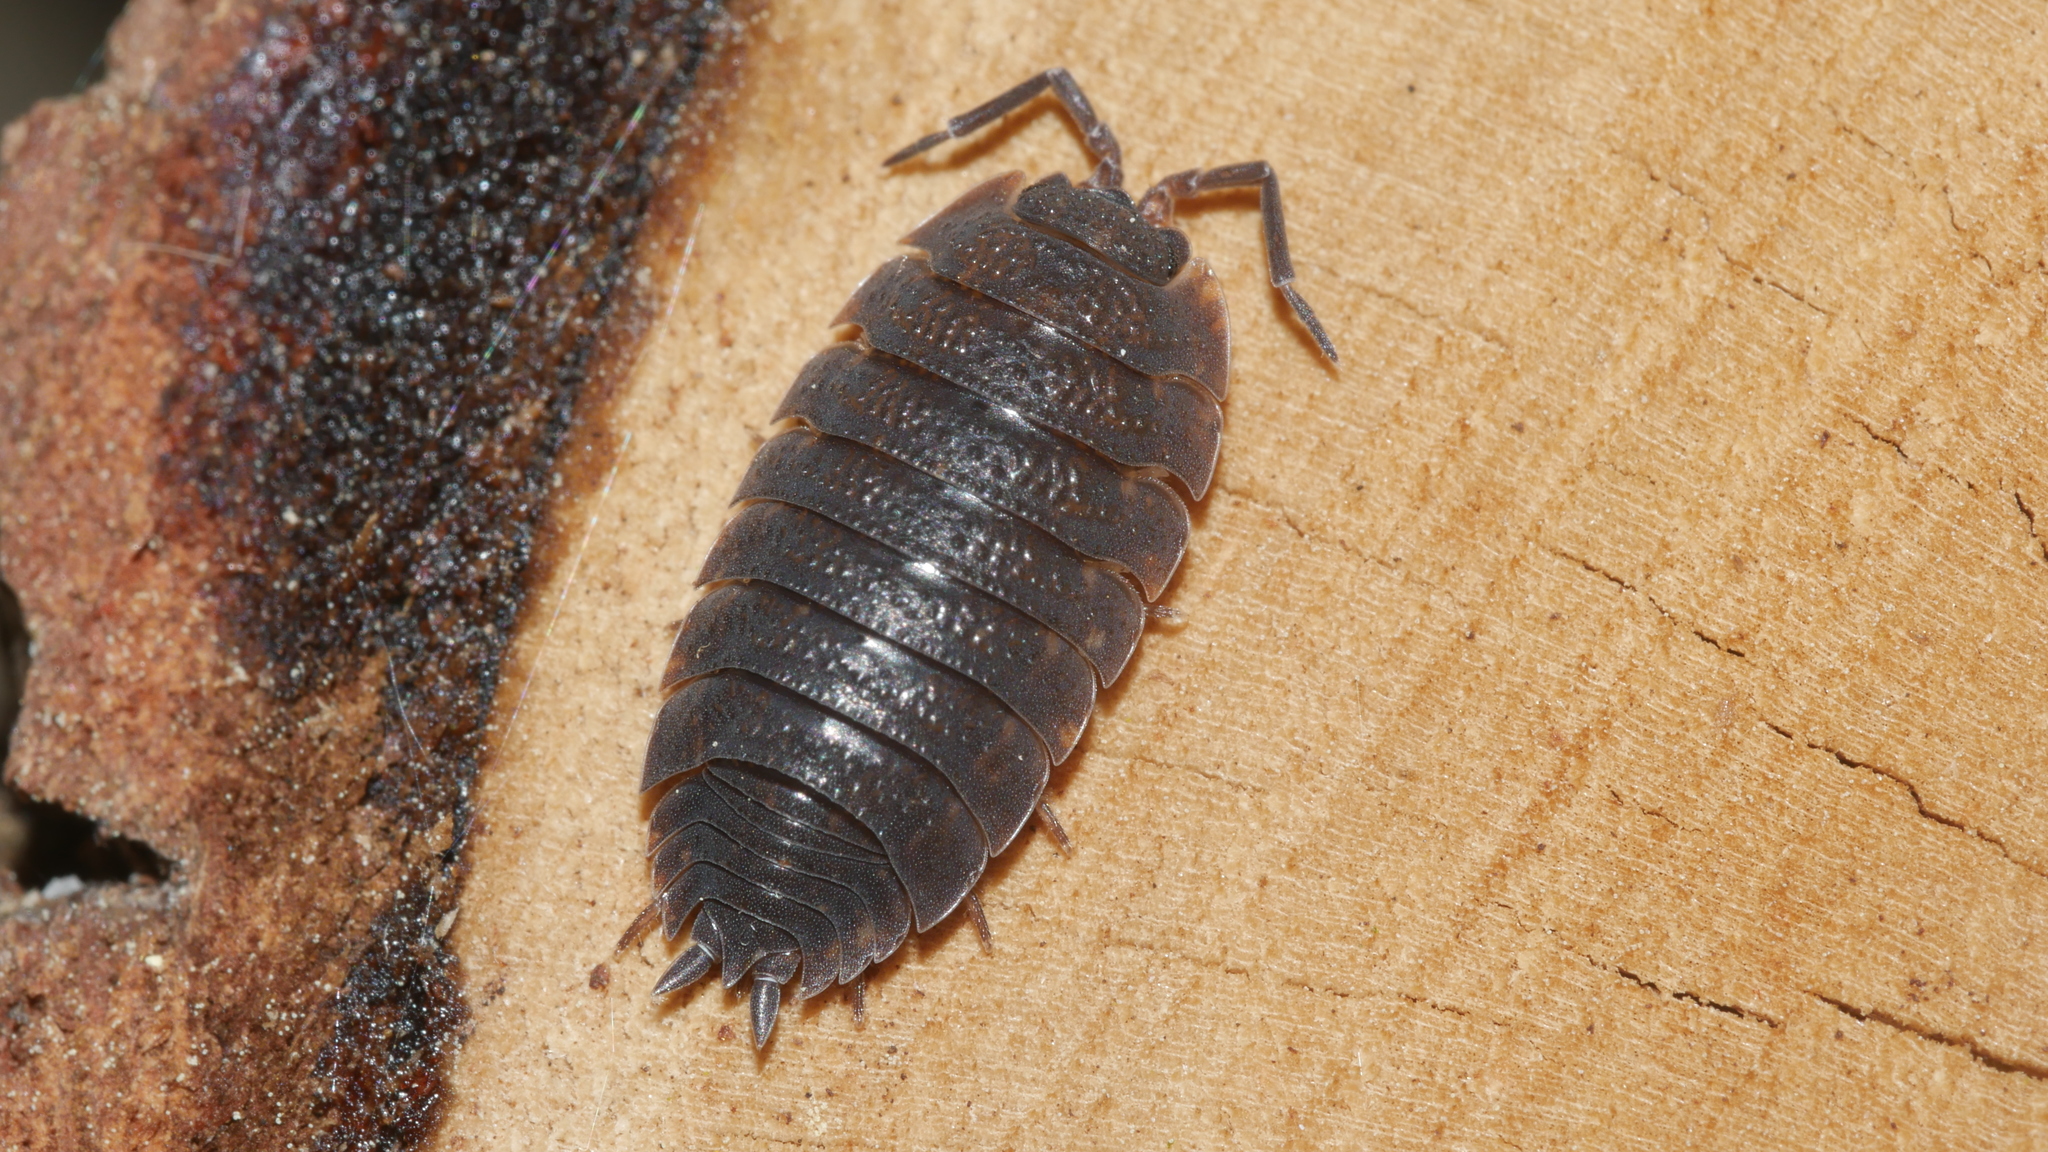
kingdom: Animalia
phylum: Arthropoda
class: Malacostraca
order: Isopoda
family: Porcellionidae
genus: Porcellio
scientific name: Porcellio scaber
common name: Common rough woodlouse
